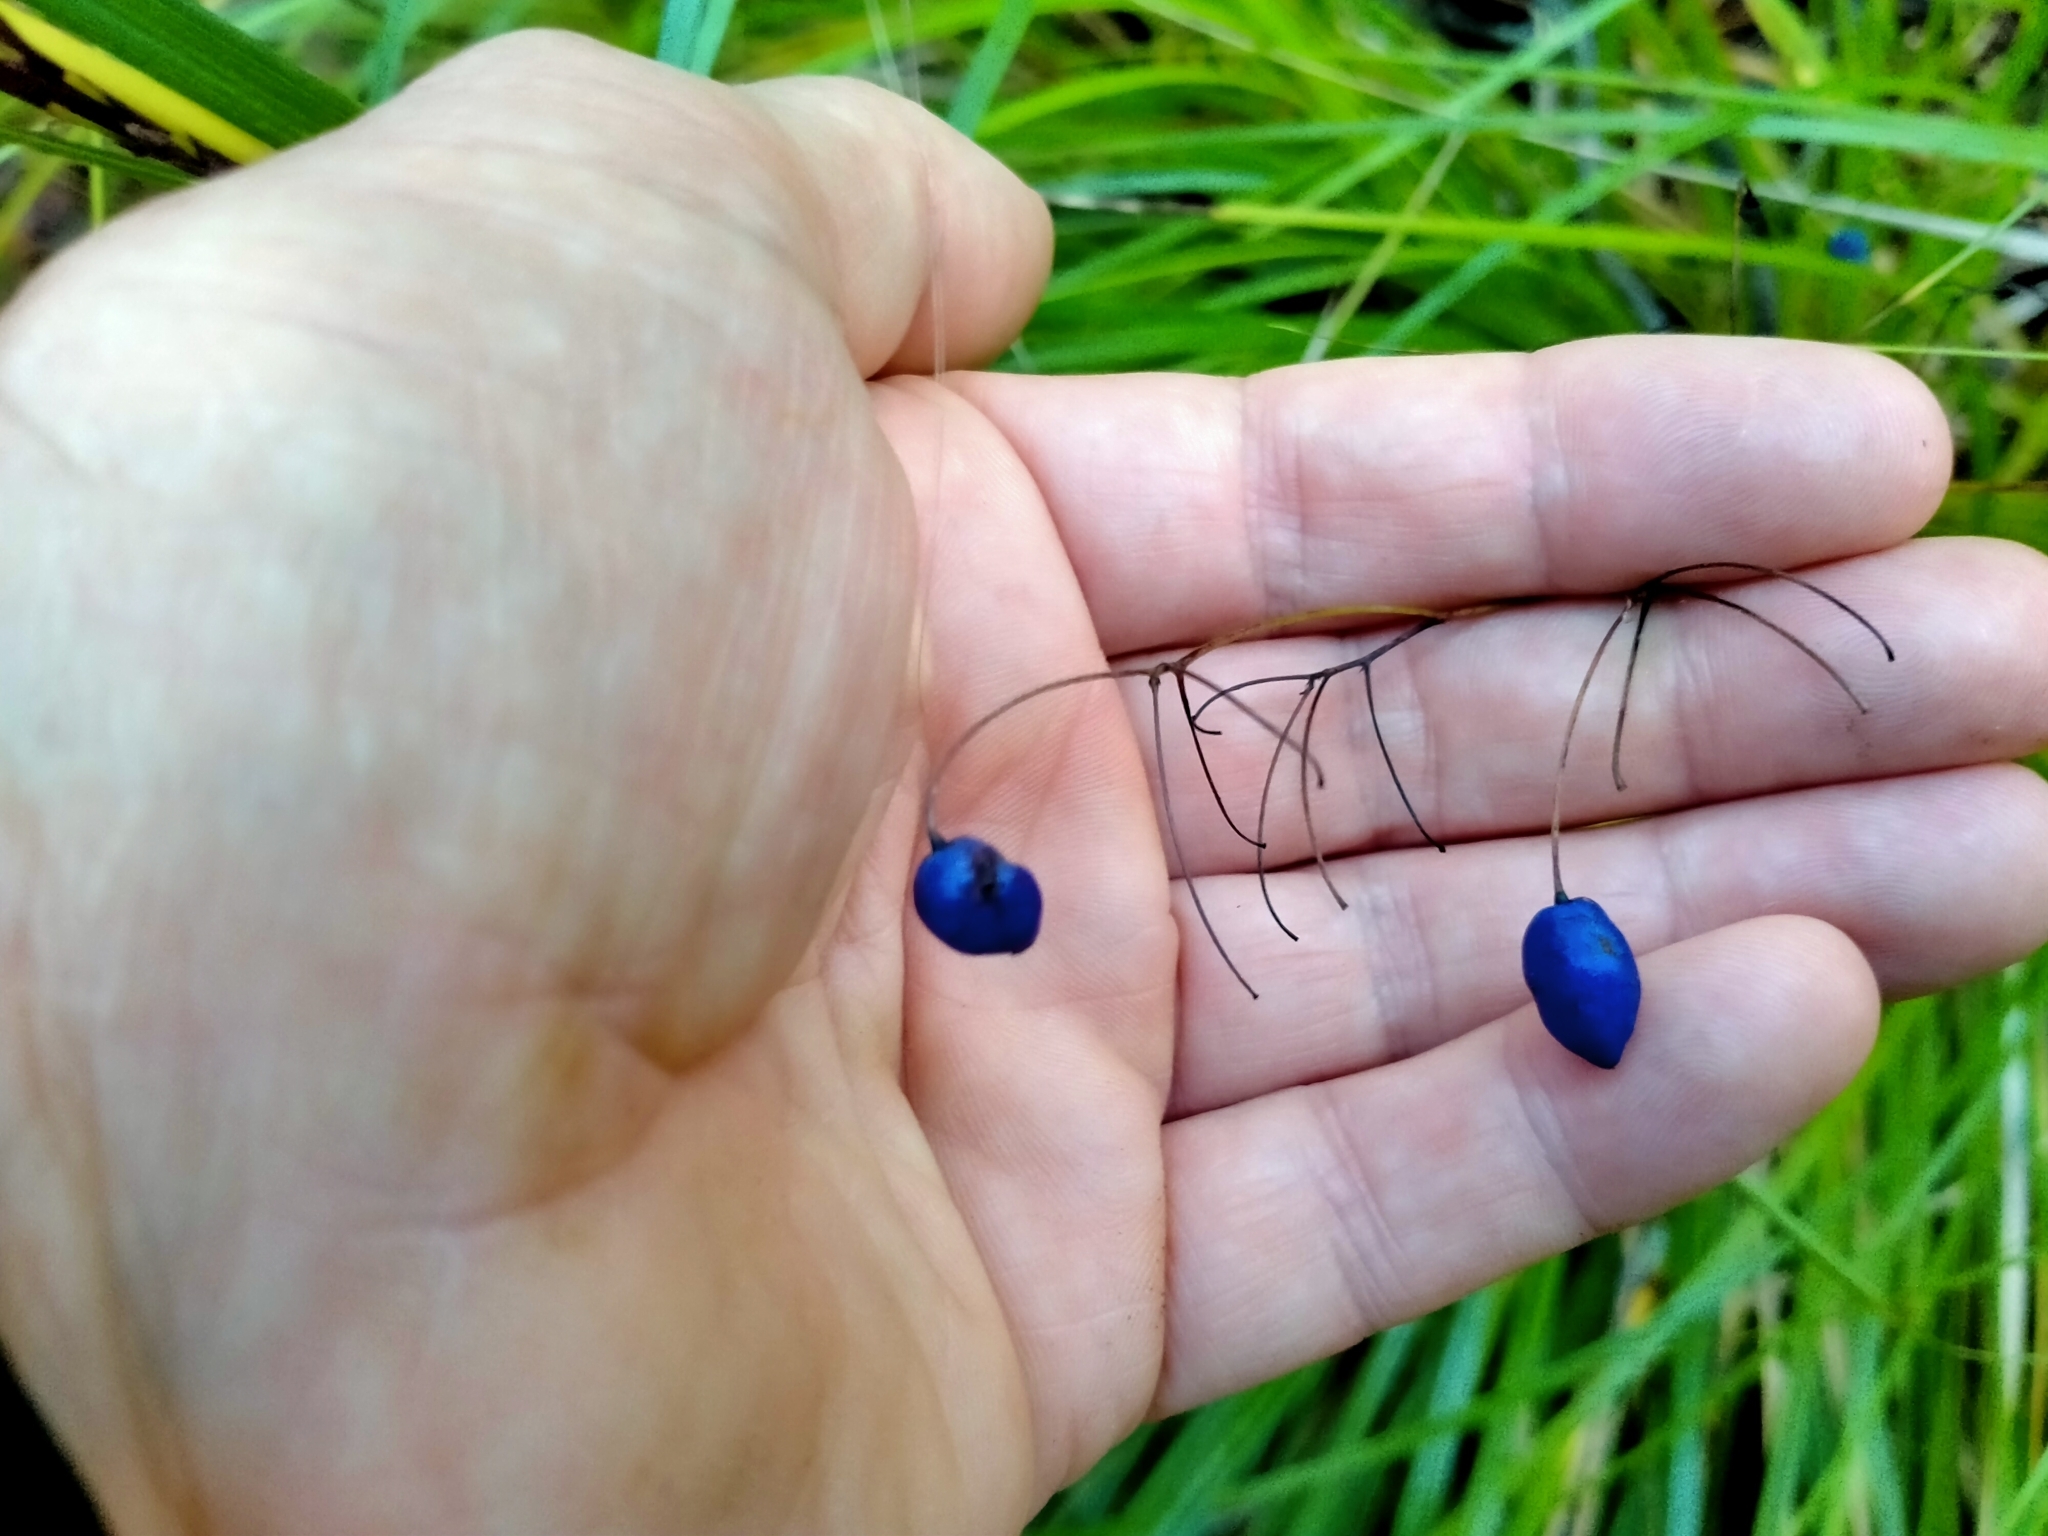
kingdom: Plantae
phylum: Tracheophyta
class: Liliopsida
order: Asparagales
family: Asphodelaceae
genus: Dianella
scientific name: Dianella nigra
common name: New zealand-blueberry
